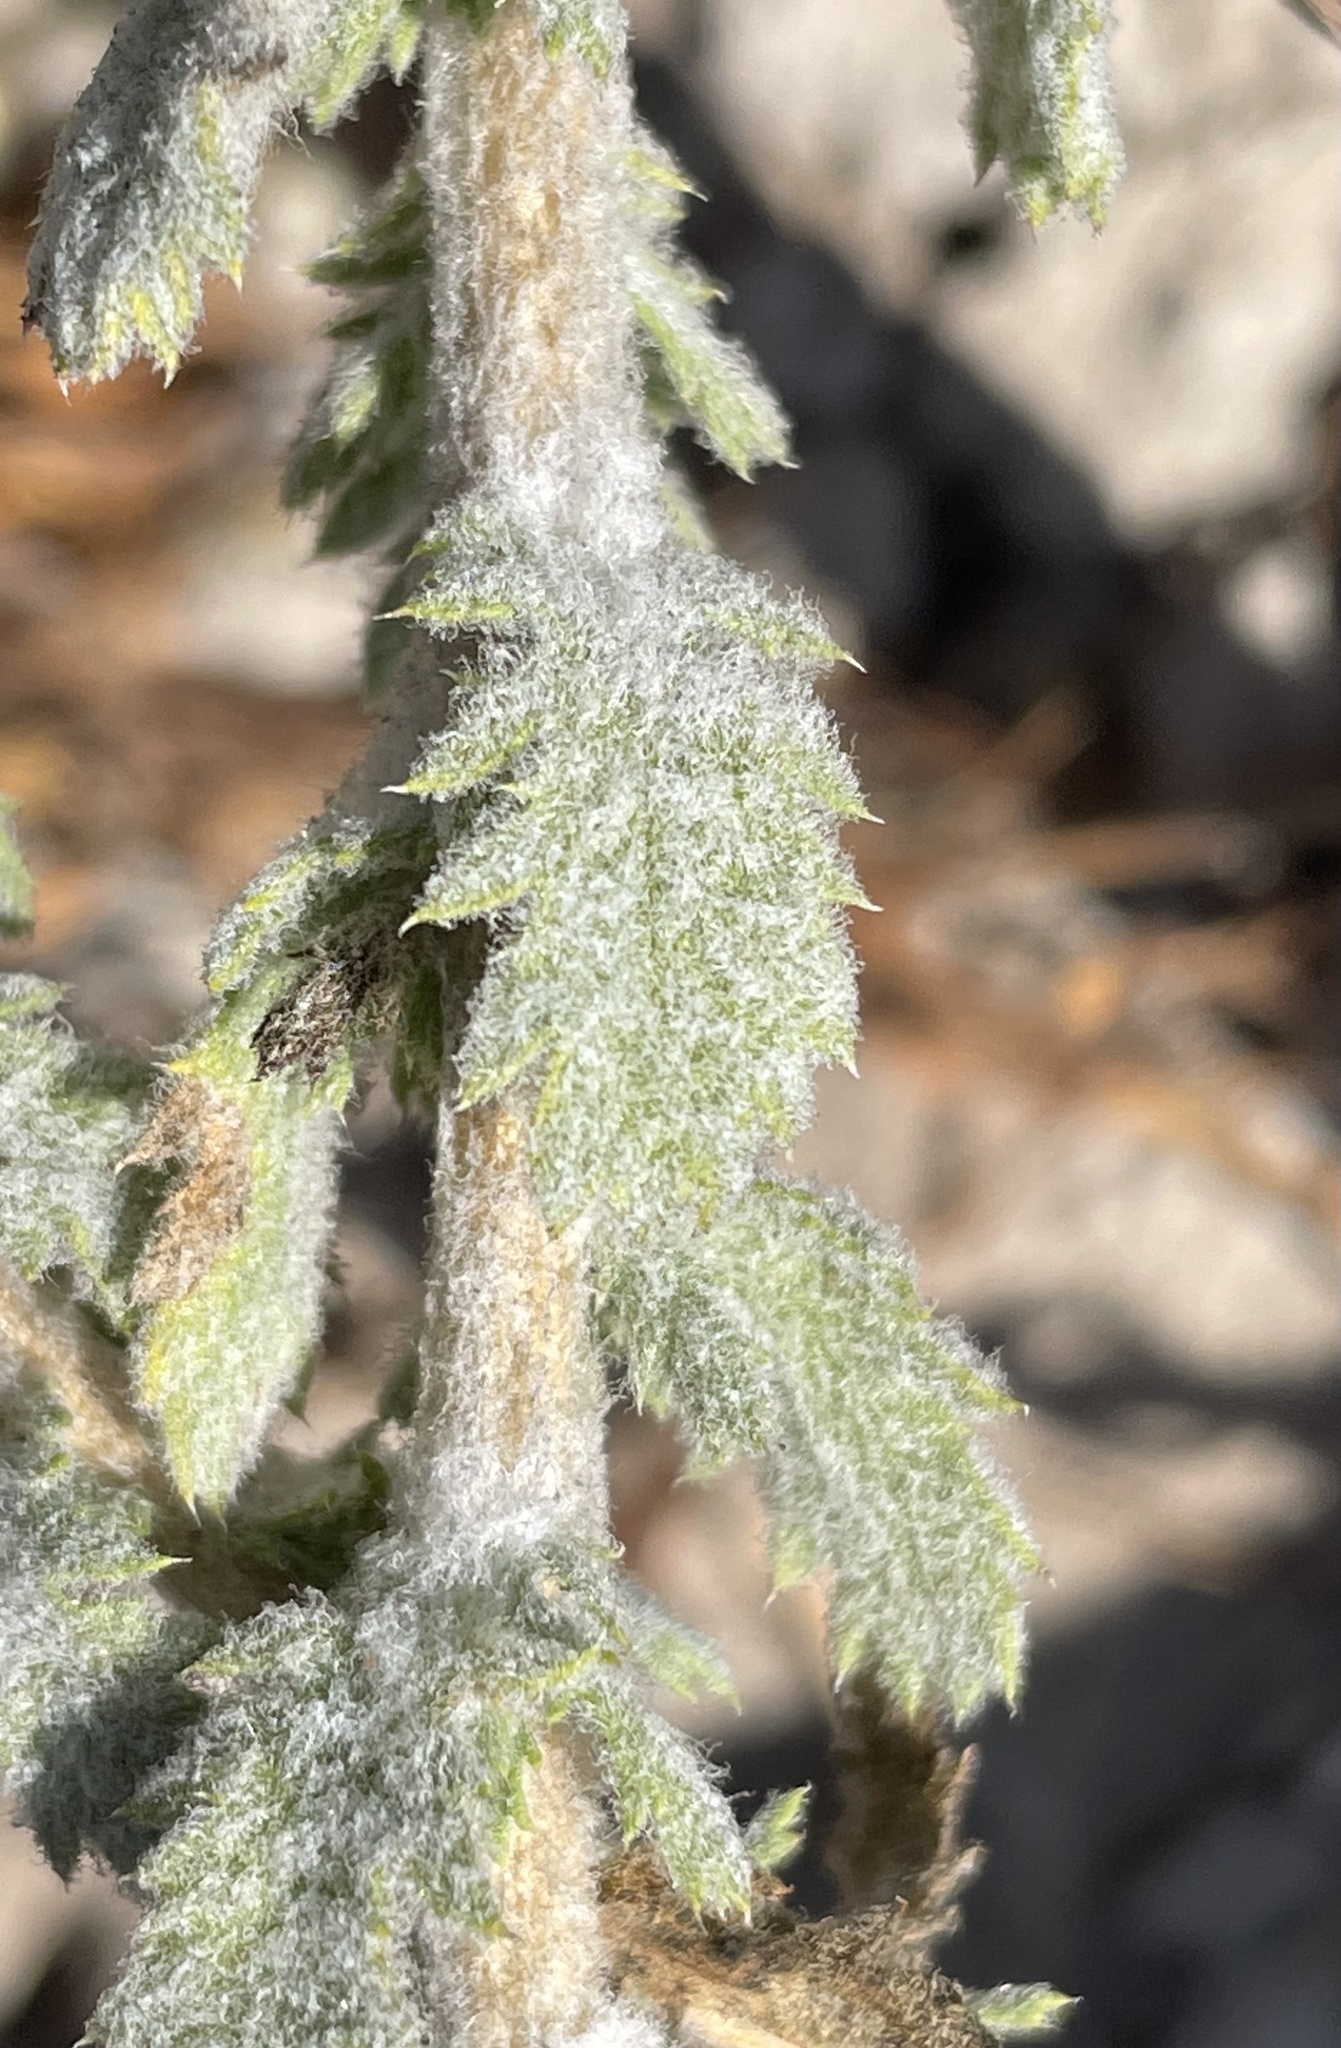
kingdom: Plantae
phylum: Tracheophyta
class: Magnoliopsida
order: Asterales
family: Asteraceae
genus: Isocoma
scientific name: Isocoma menziesii
